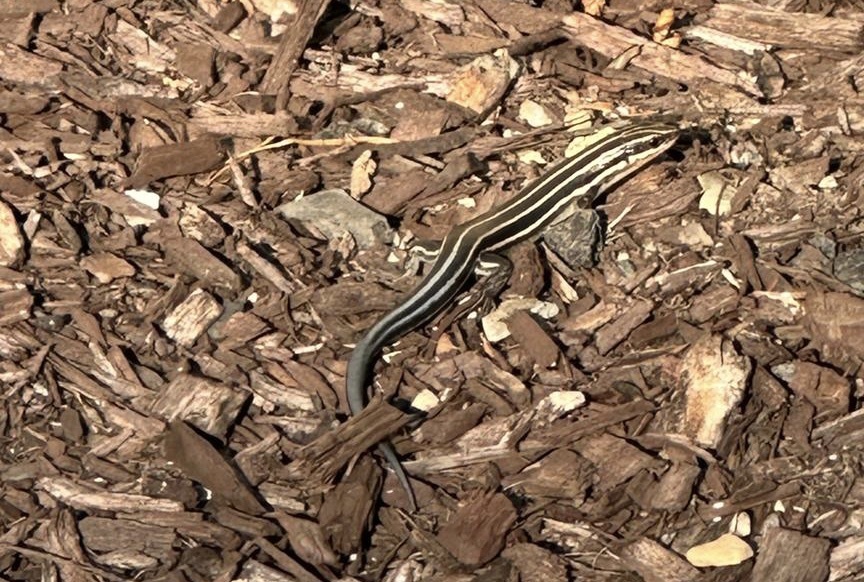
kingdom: Animalia
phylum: Chordata
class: Squamata
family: Scincidae
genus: Plestiodon
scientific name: Plestiodon fasciatus
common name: Five-lined skink
